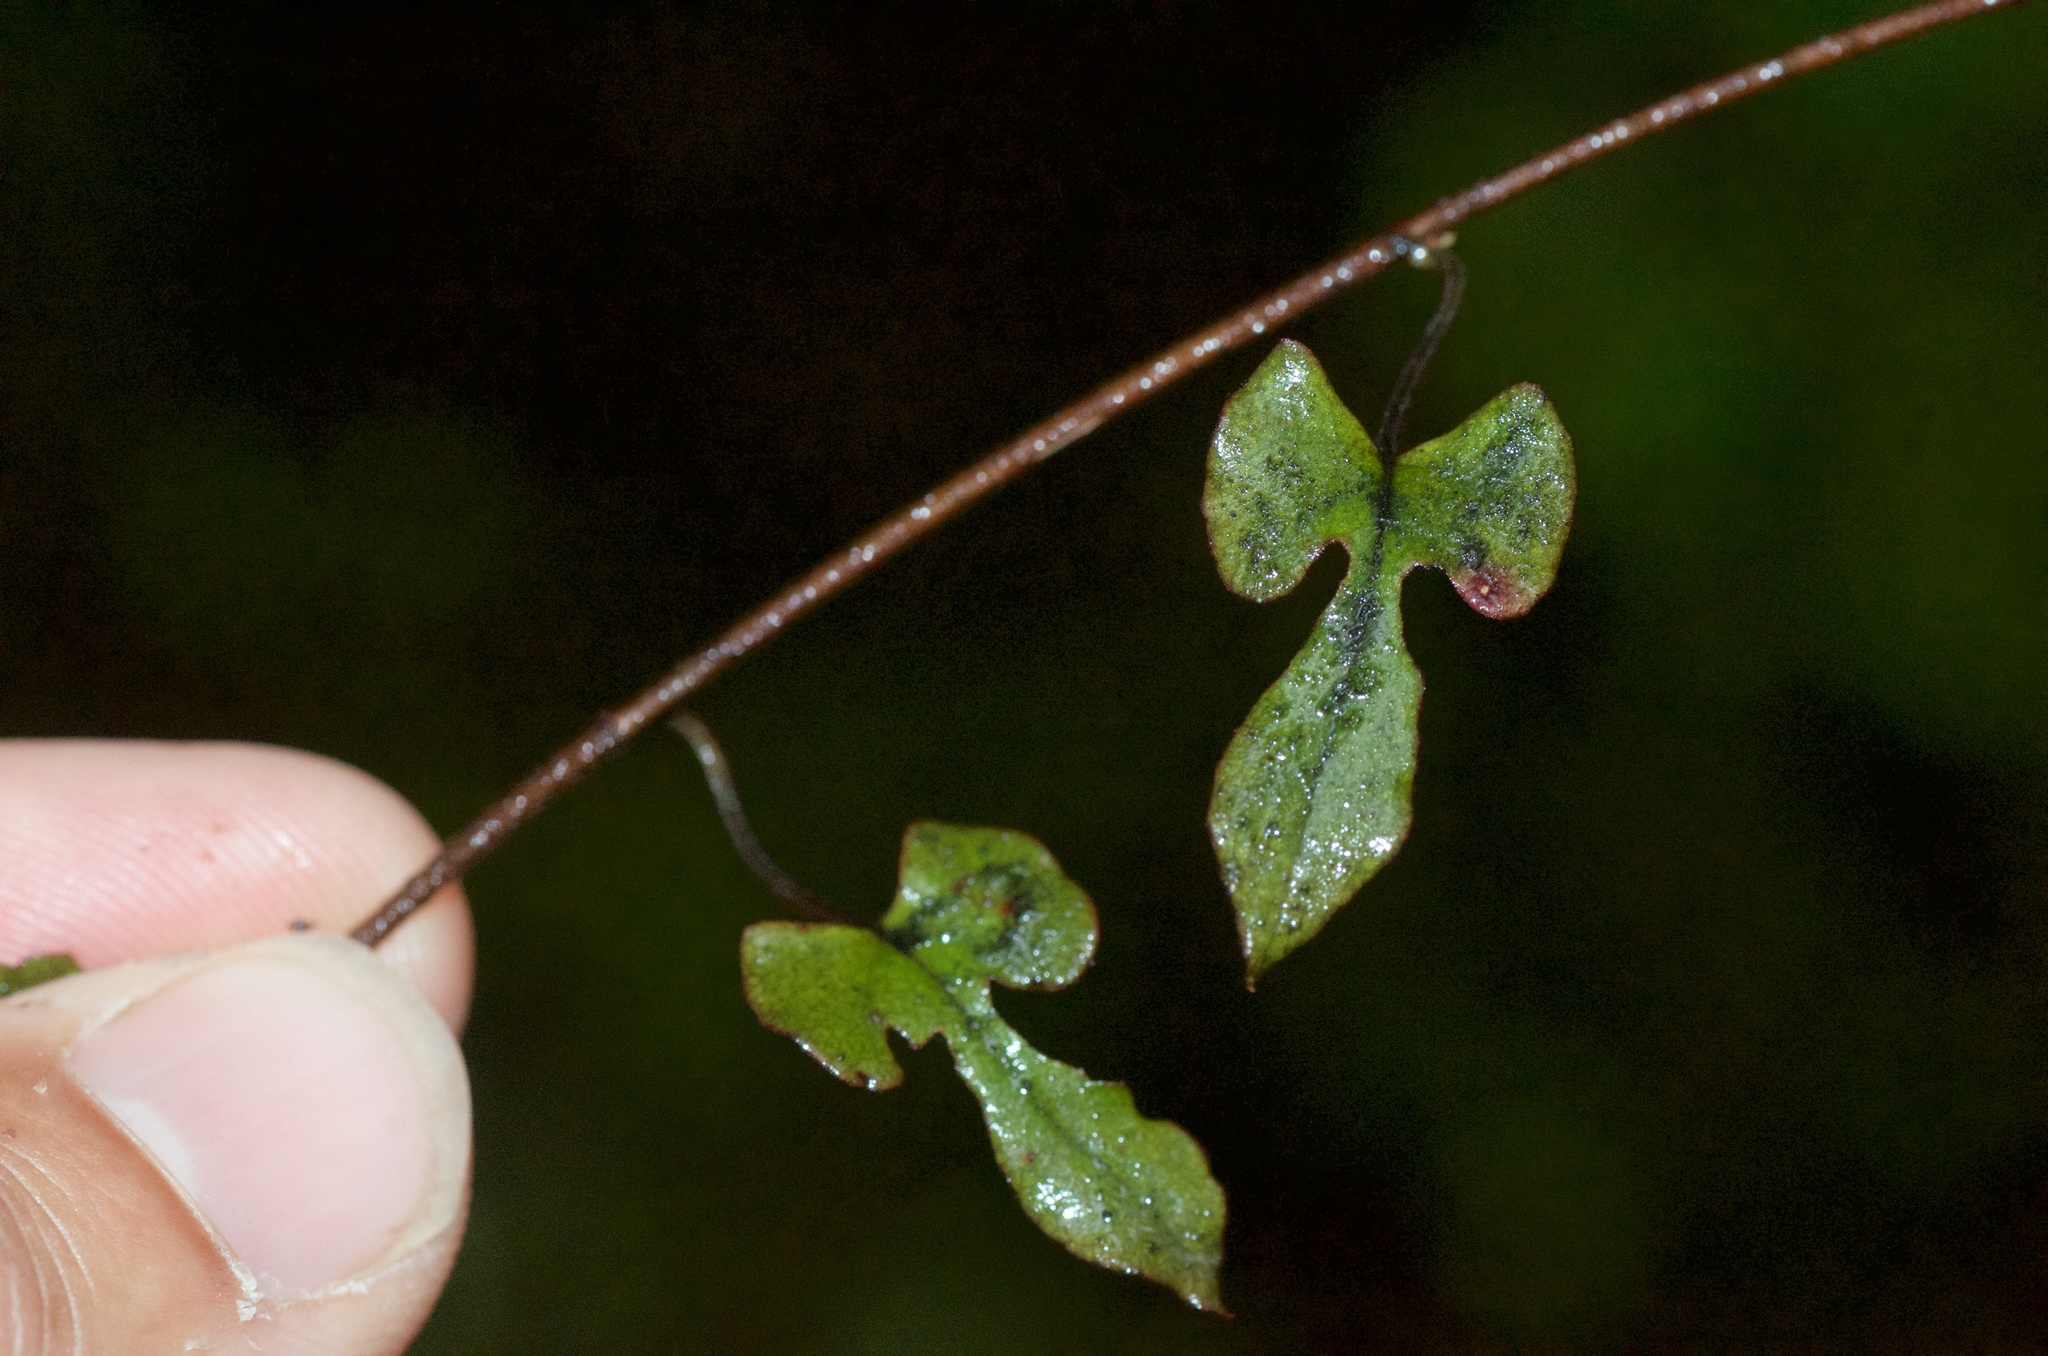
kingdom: Plantae
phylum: Tracheophyta
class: Magnoliopsida
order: Ranunculales
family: Ranunculaceae
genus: Clematis
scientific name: Clematis paniculata
